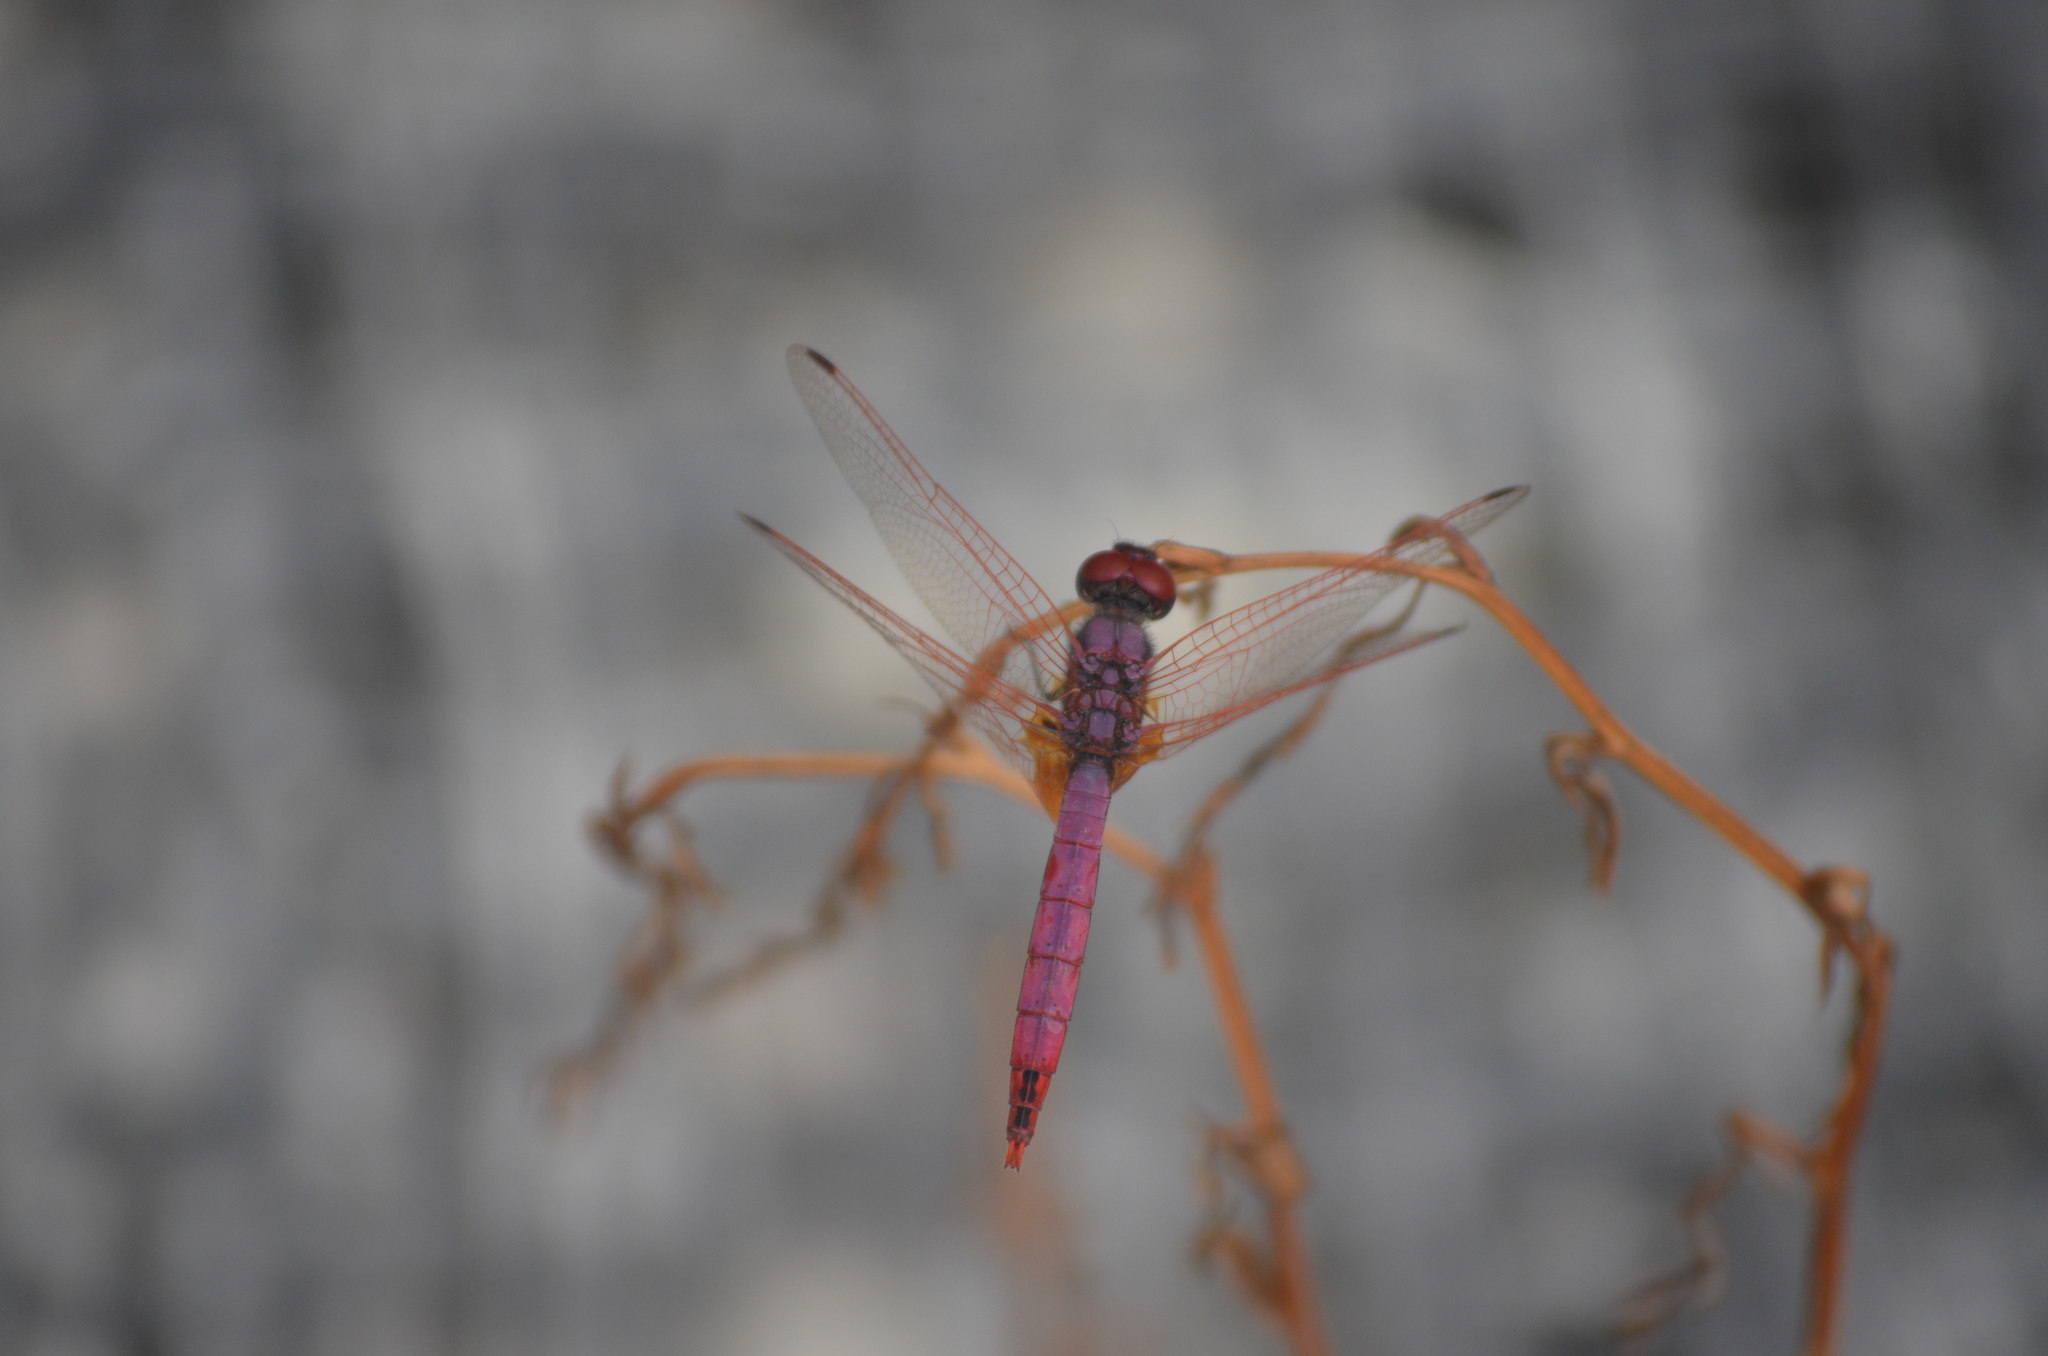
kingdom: Animalia
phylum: Arthropoda
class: Insecta
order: Odonata
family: Libellulidae
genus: Trithemis
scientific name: Trithemis annulata
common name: Violet dropwing
